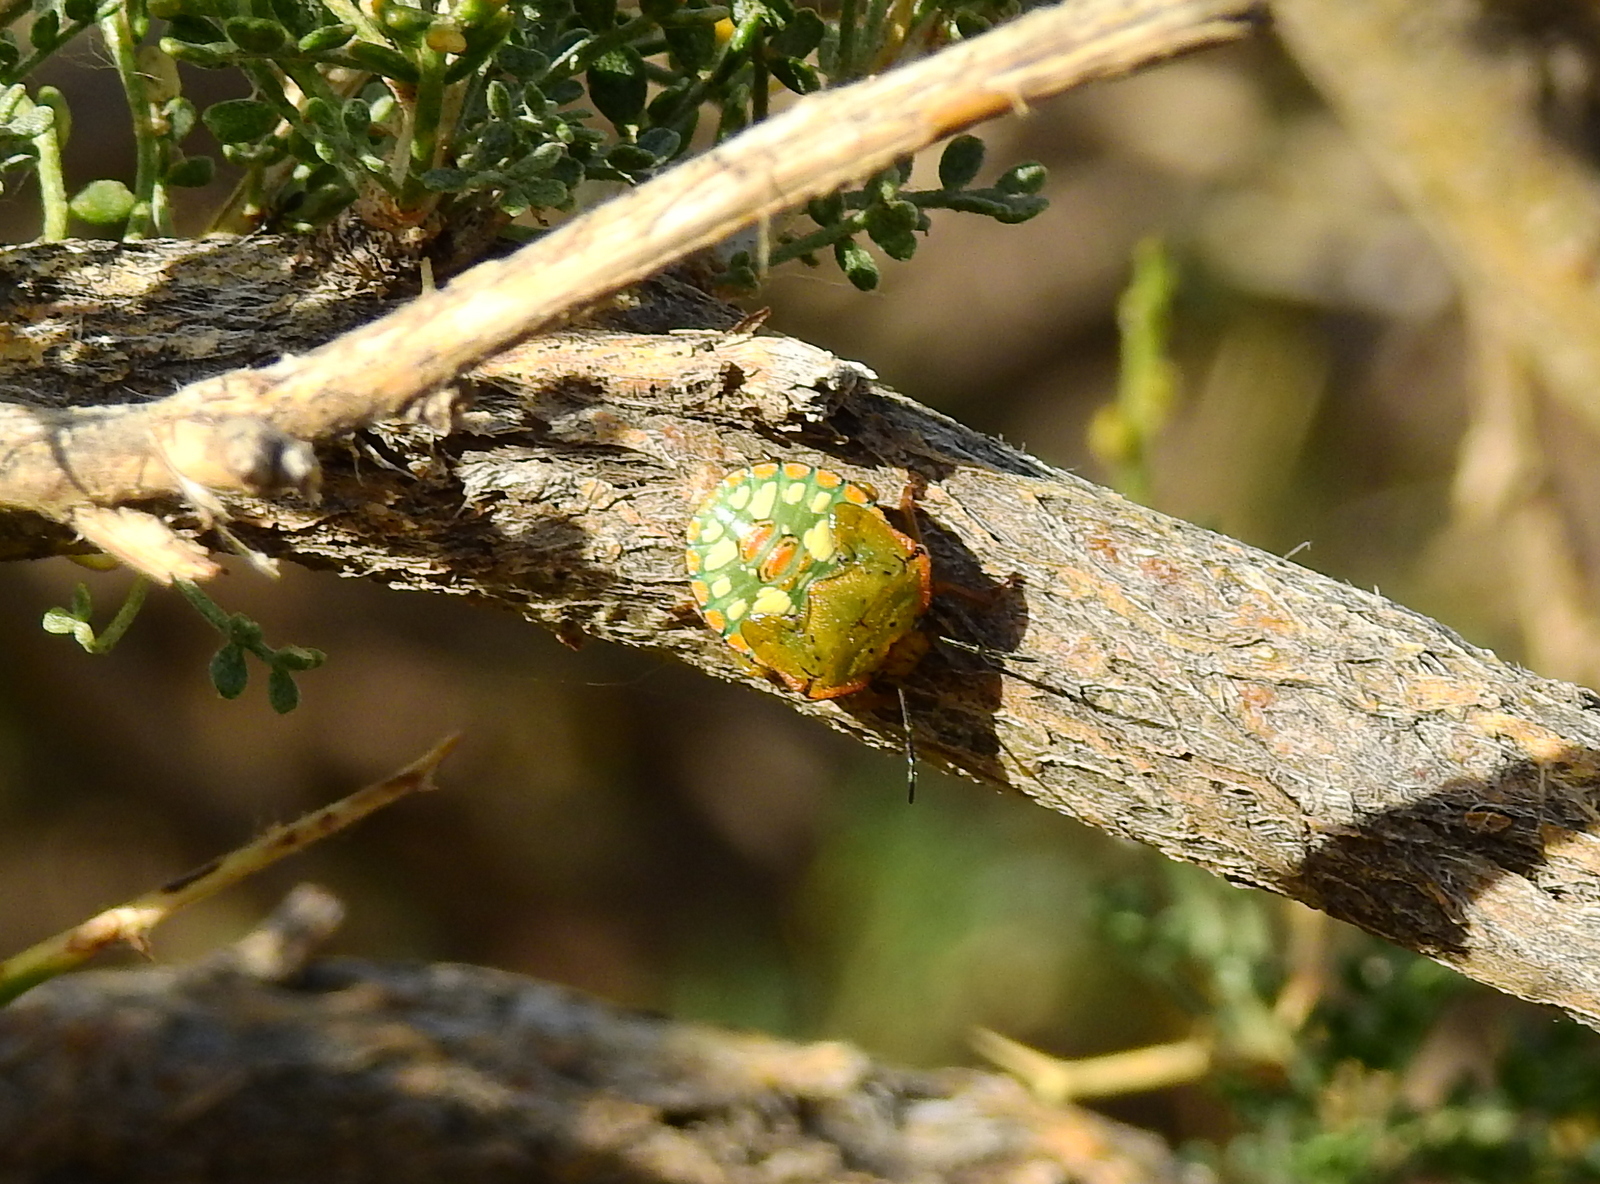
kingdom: Animalia
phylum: Arthropoda
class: Insecta
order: Hemiptera
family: Pentatomidae
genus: Chinavia
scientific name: Chinavia
